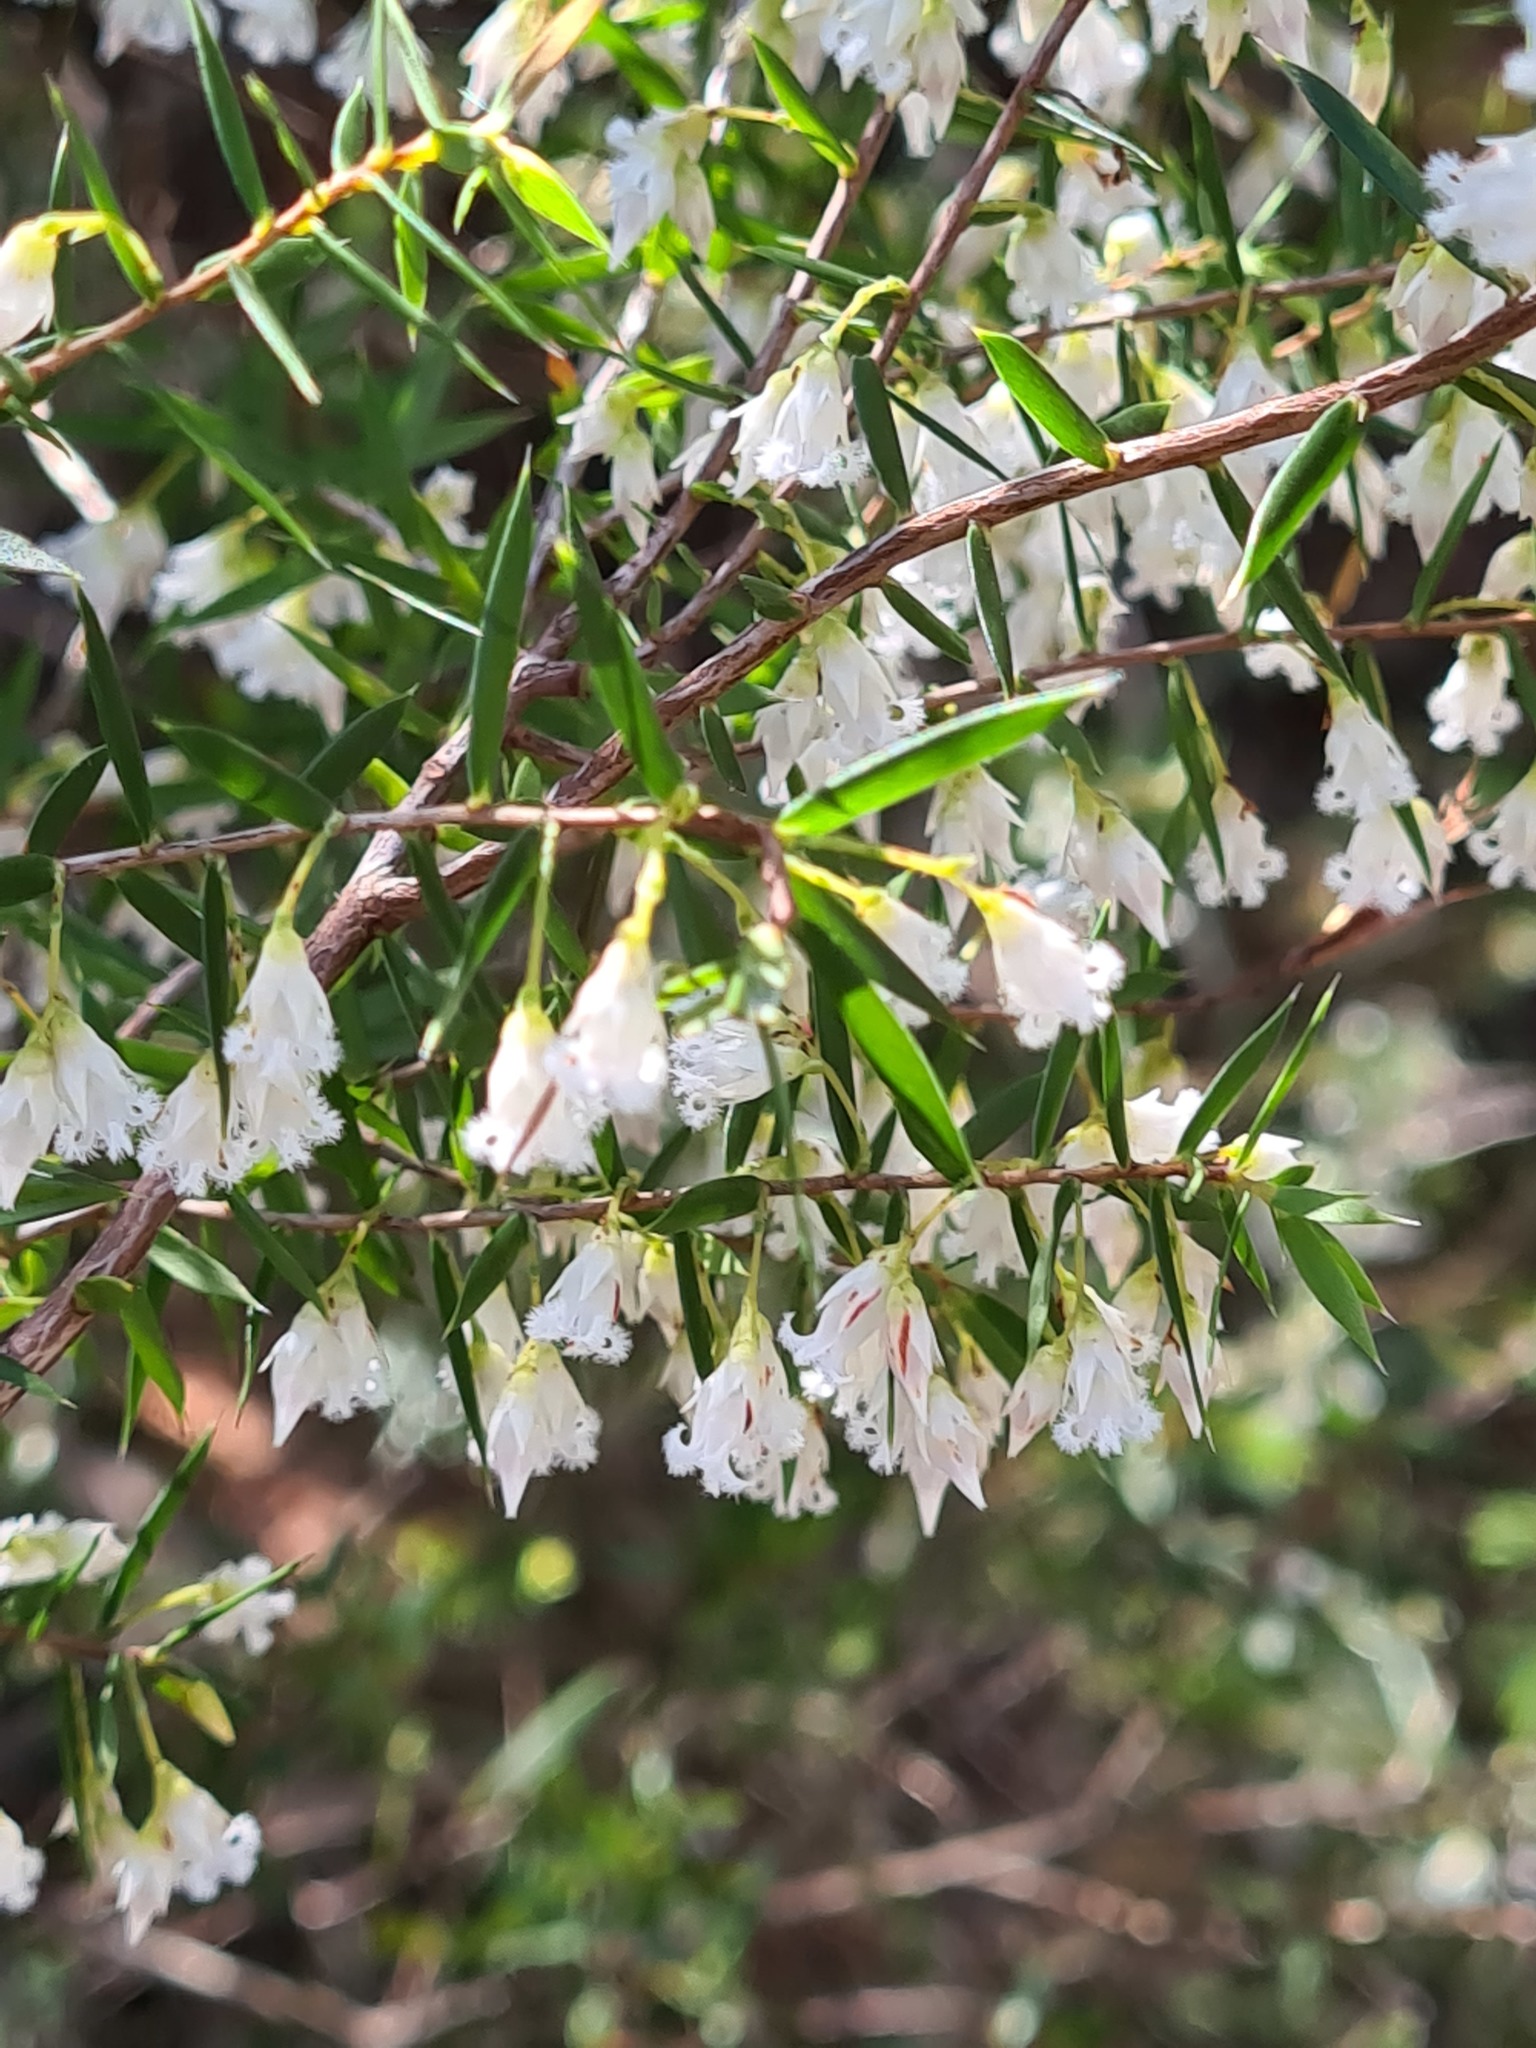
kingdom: Plantae
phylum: Tracheophyta
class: Magnoliopsida
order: Ericales
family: Ericaceae
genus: Styphelia
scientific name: Styphelia setigera
